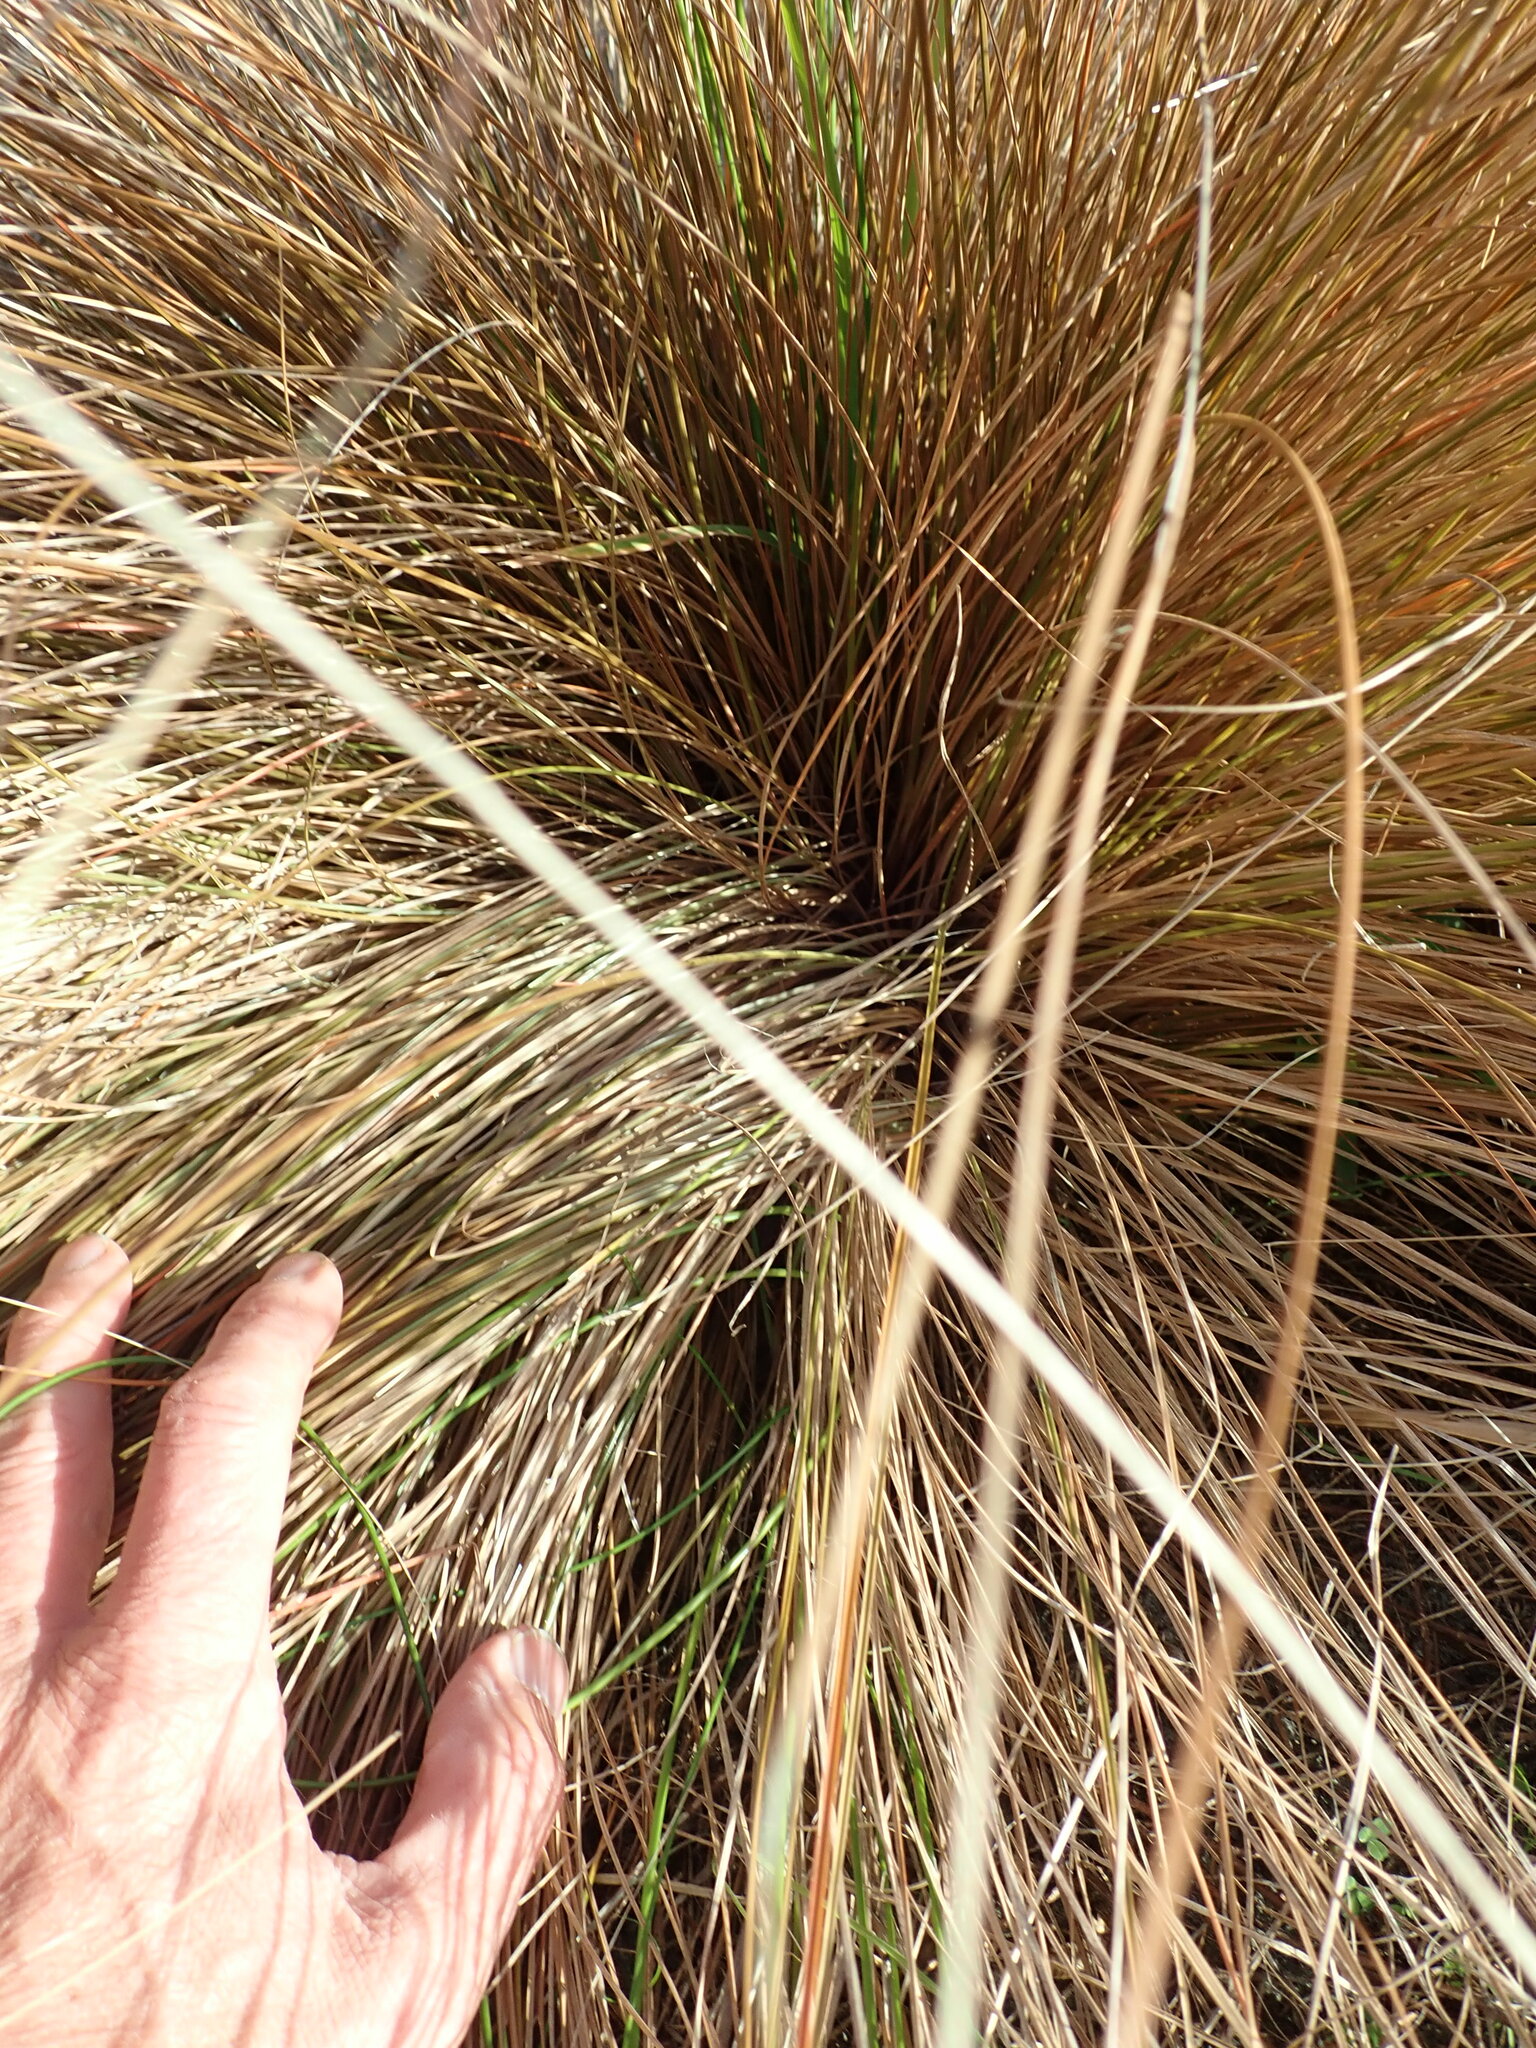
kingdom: Plantae
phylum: Tracheophyta
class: Liliopsida
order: Poales
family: Cyperaceae
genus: Carex
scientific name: Carex testacea
